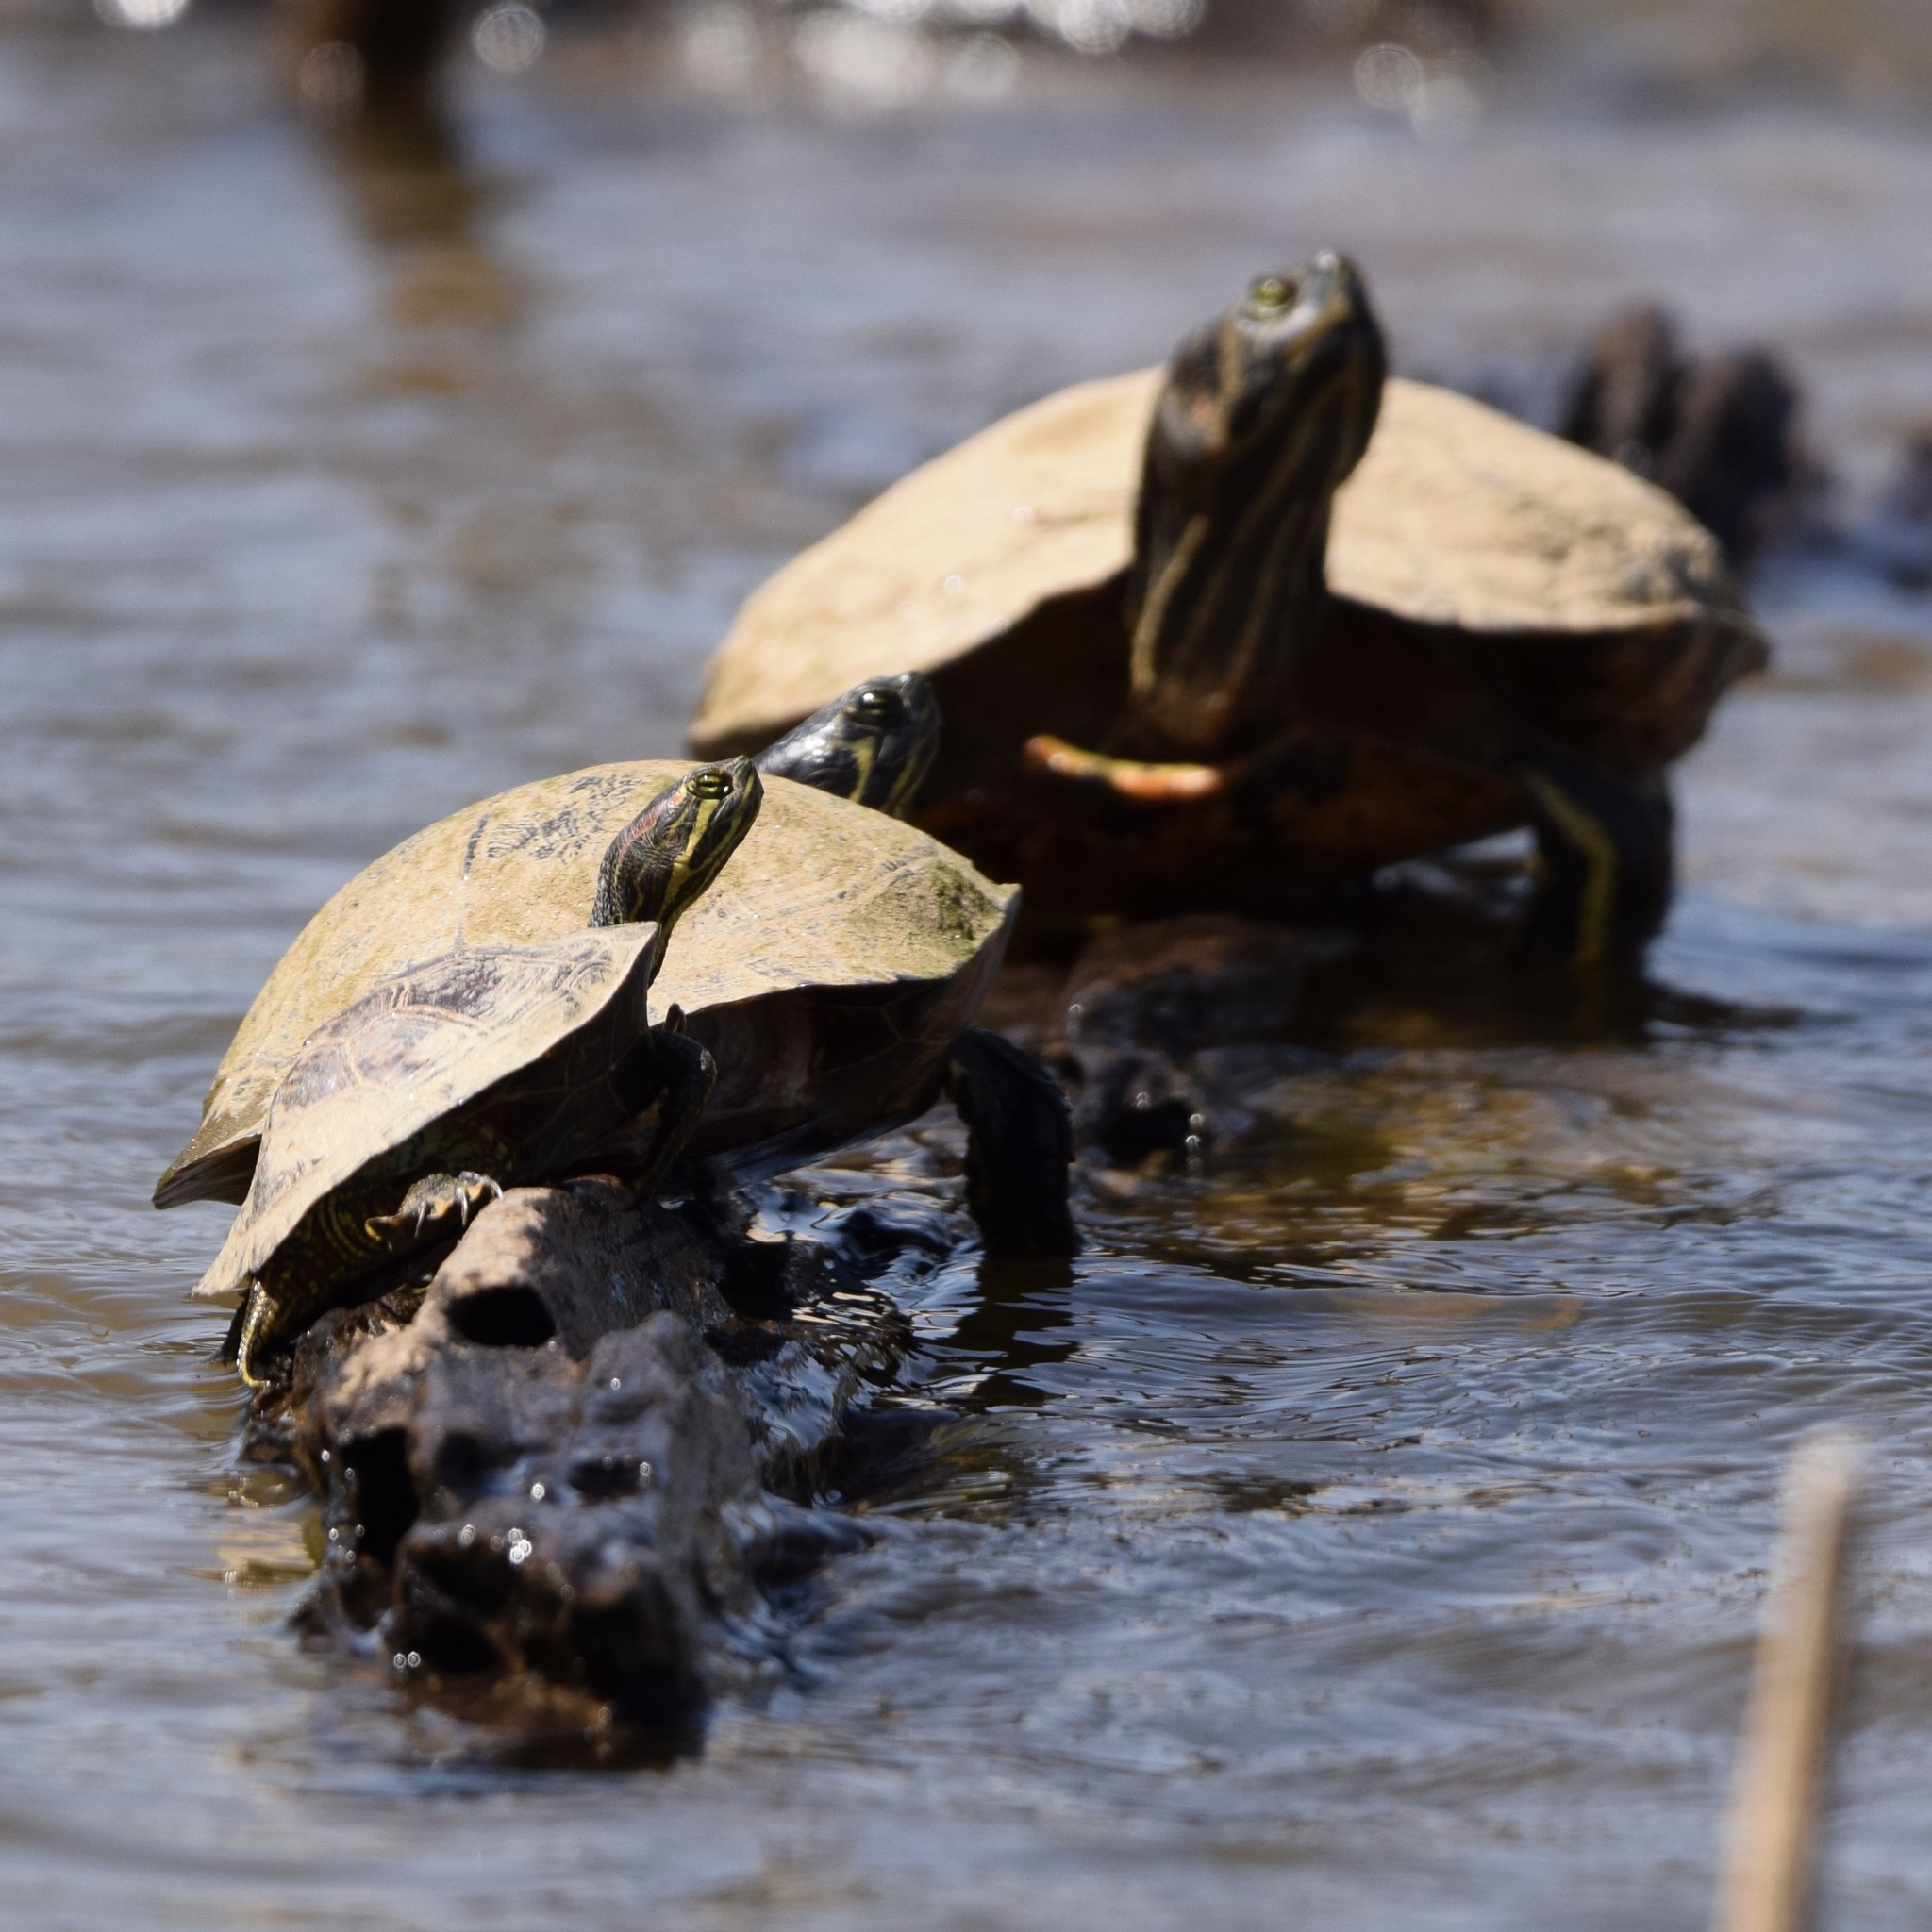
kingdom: Animalia
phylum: Chordata
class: Testudines
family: Emydidae
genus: Trachemys
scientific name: Trachemys scripta
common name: Slider
